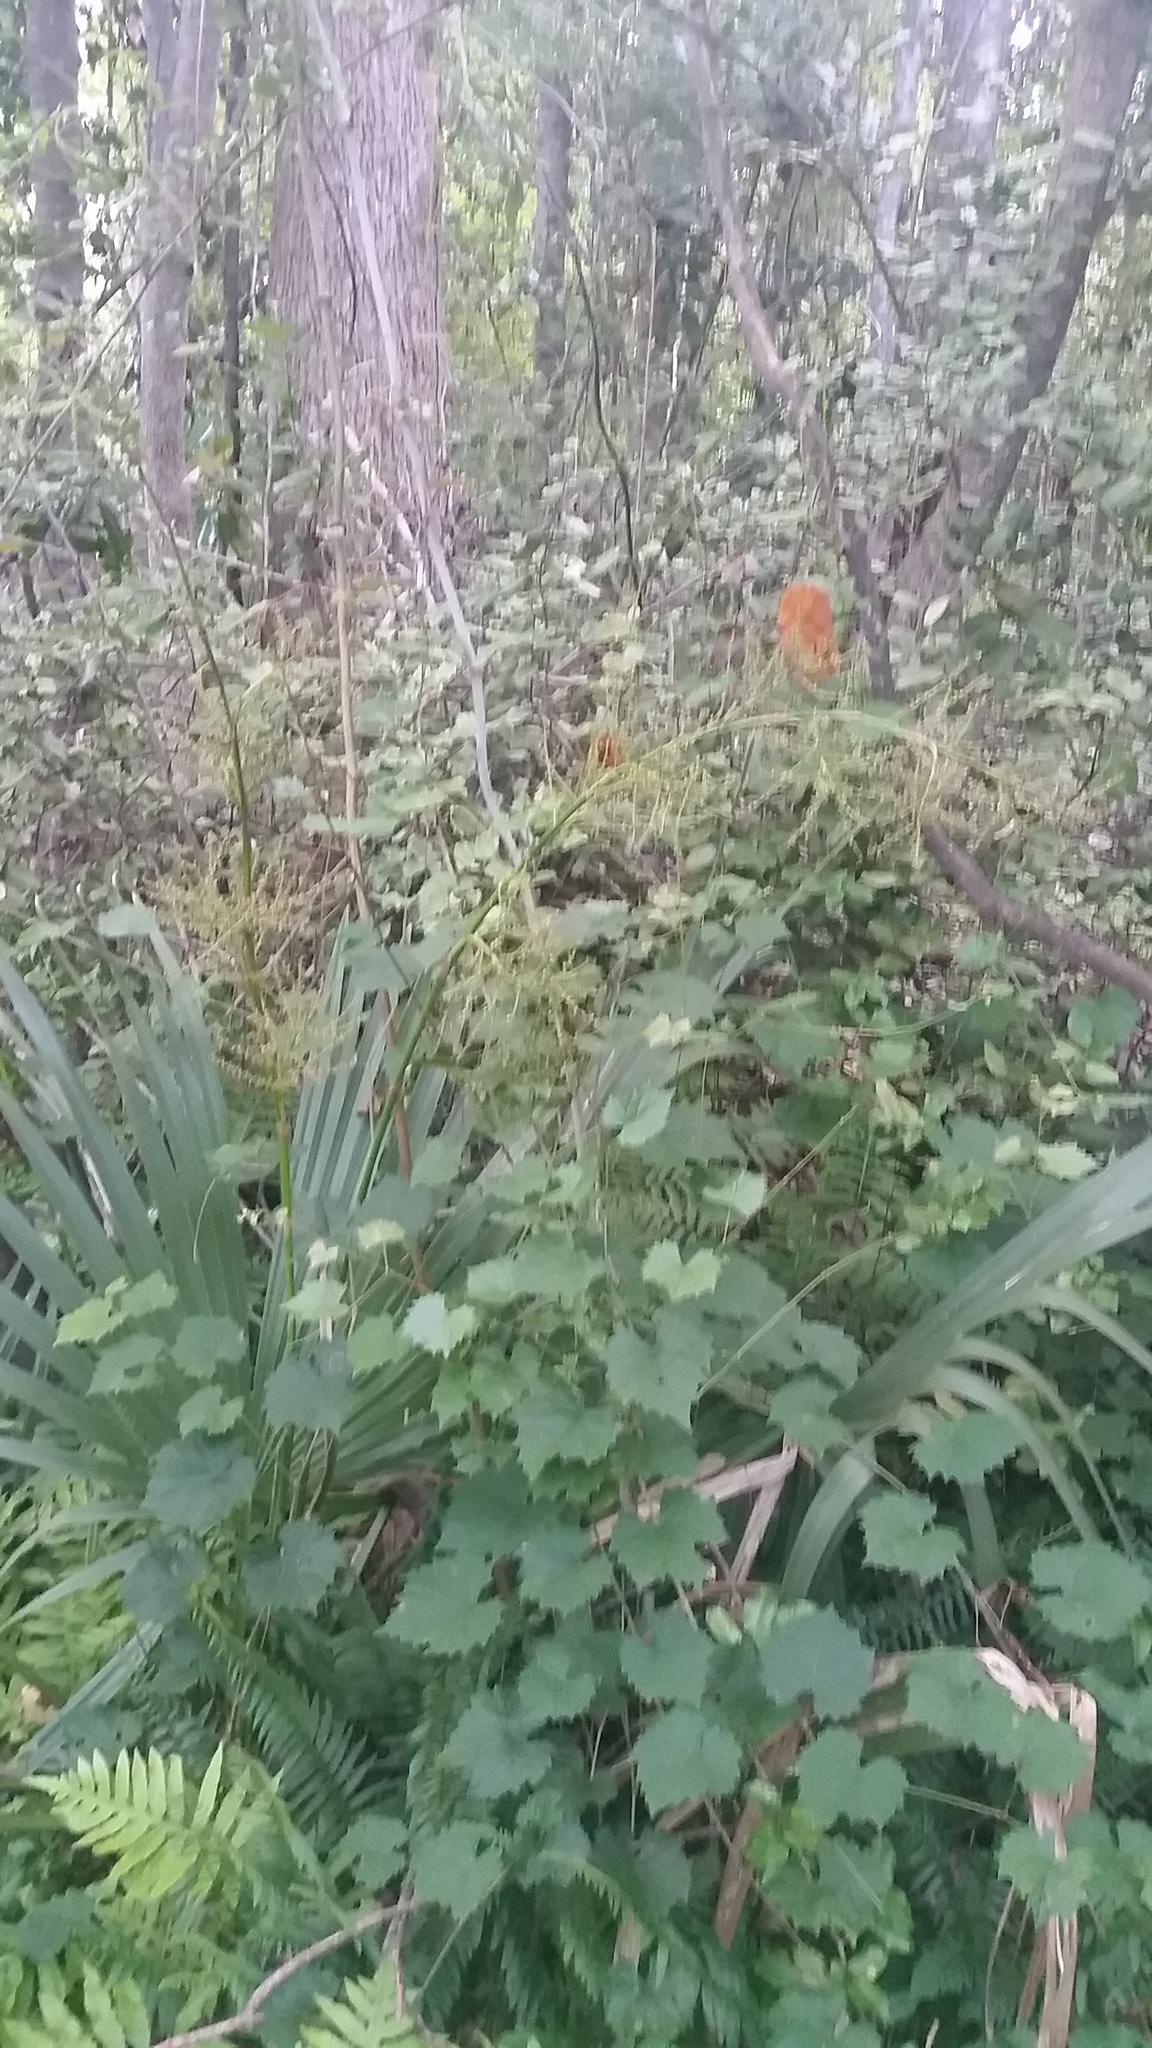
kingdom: Plantae
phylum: Tracheophyta
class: Liliopsida
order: Arecales
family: Arecaceae
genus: Sabal
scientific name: Sabal minor
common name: Dwarf palmetto
